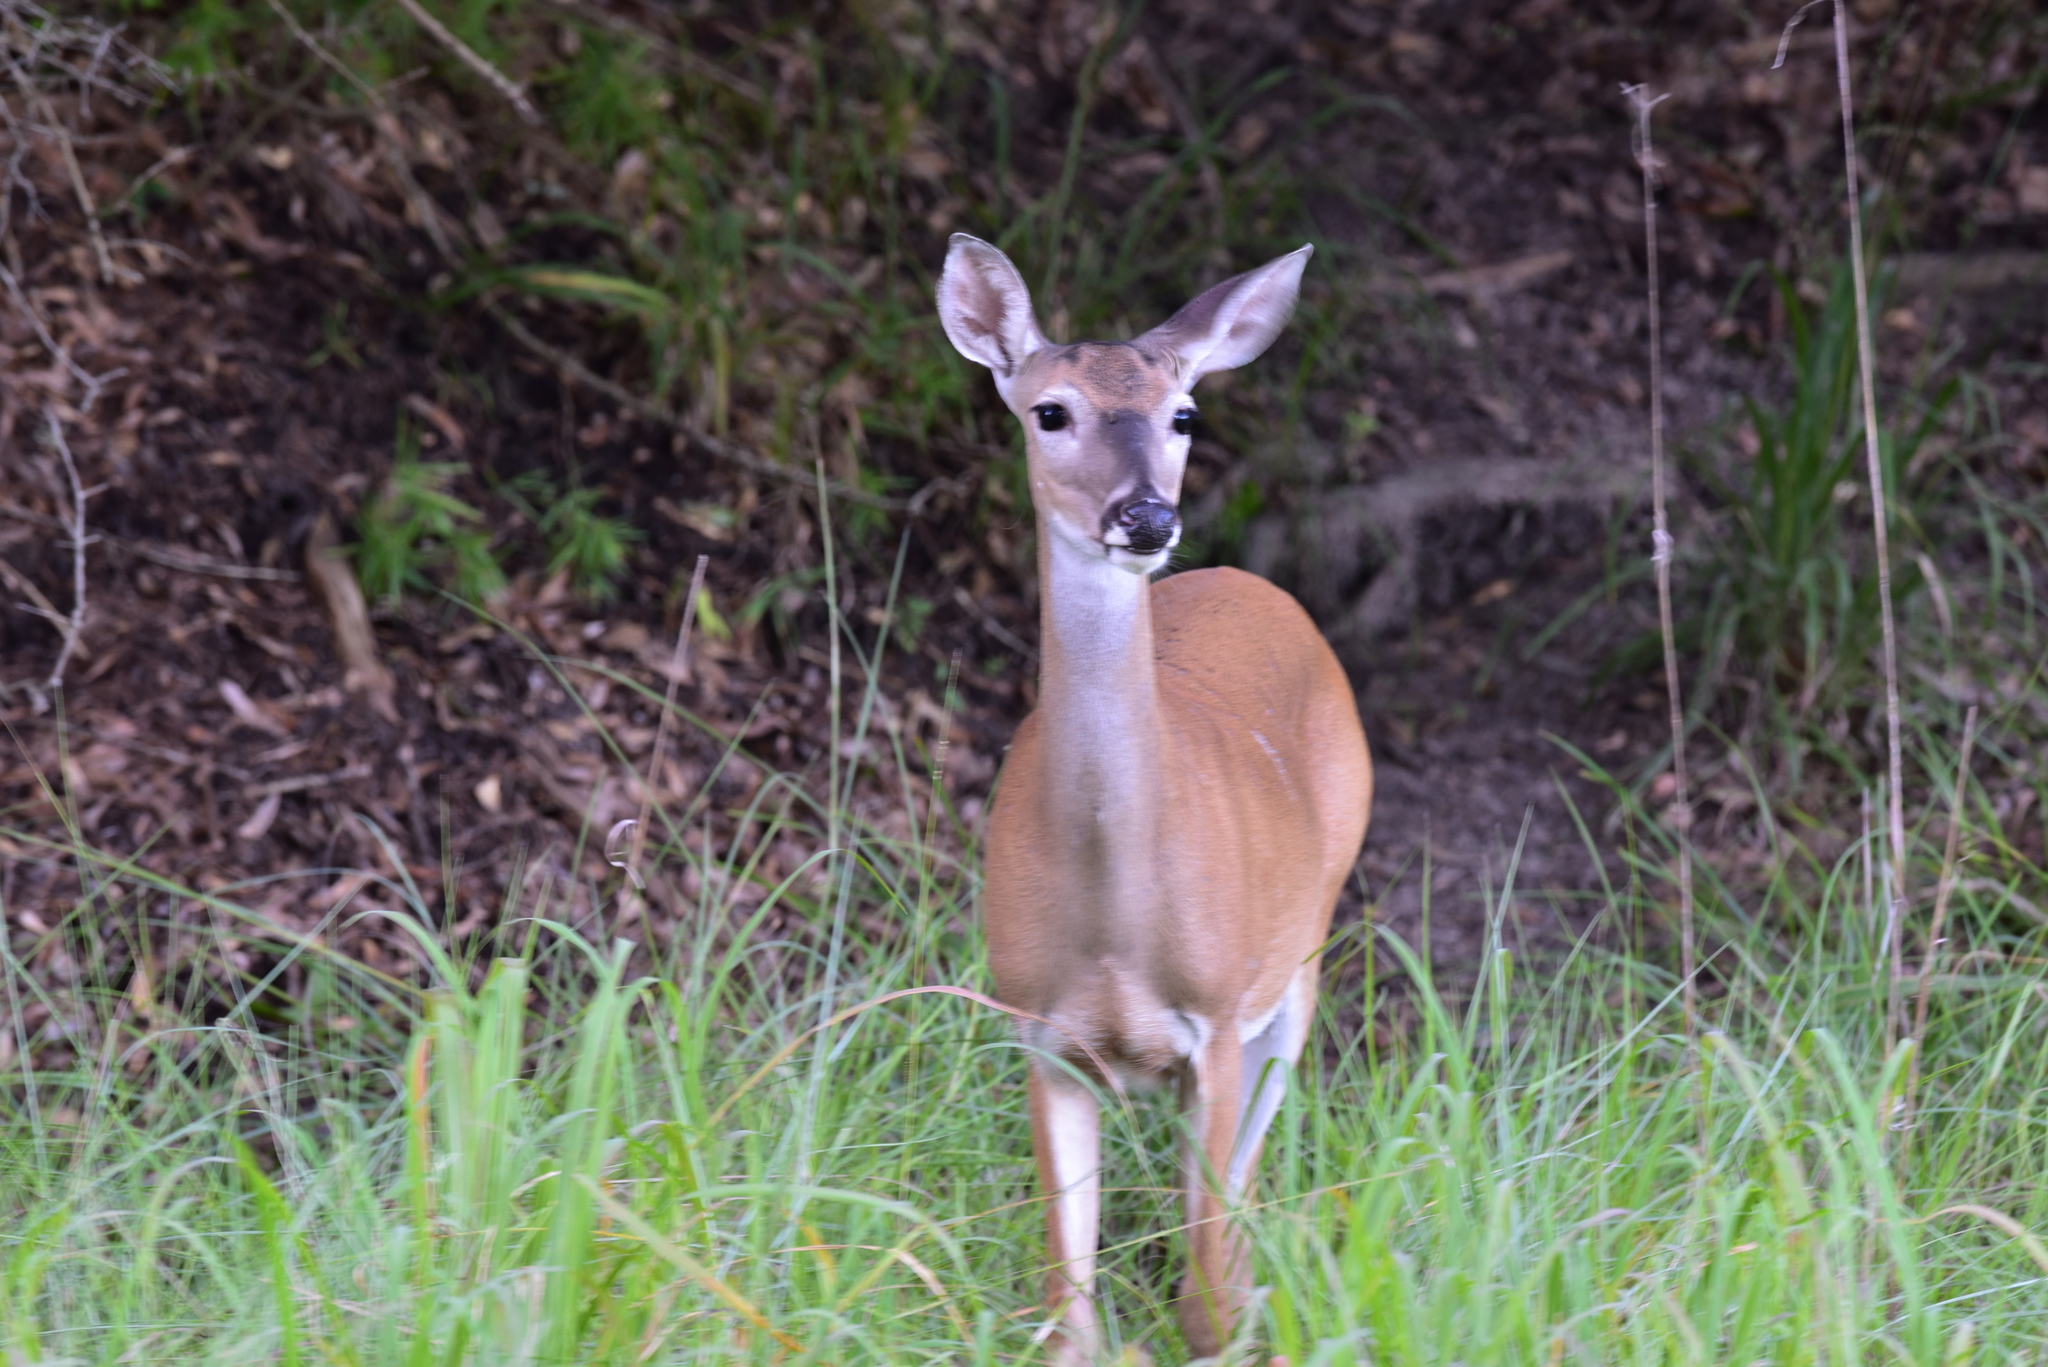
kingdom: Animalia
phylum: Chordata
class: Mammalia
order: Artiodactyla
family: Cervidae
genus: Odocoileus
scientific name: Odocoileus virginianus
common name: White-tailed deer
